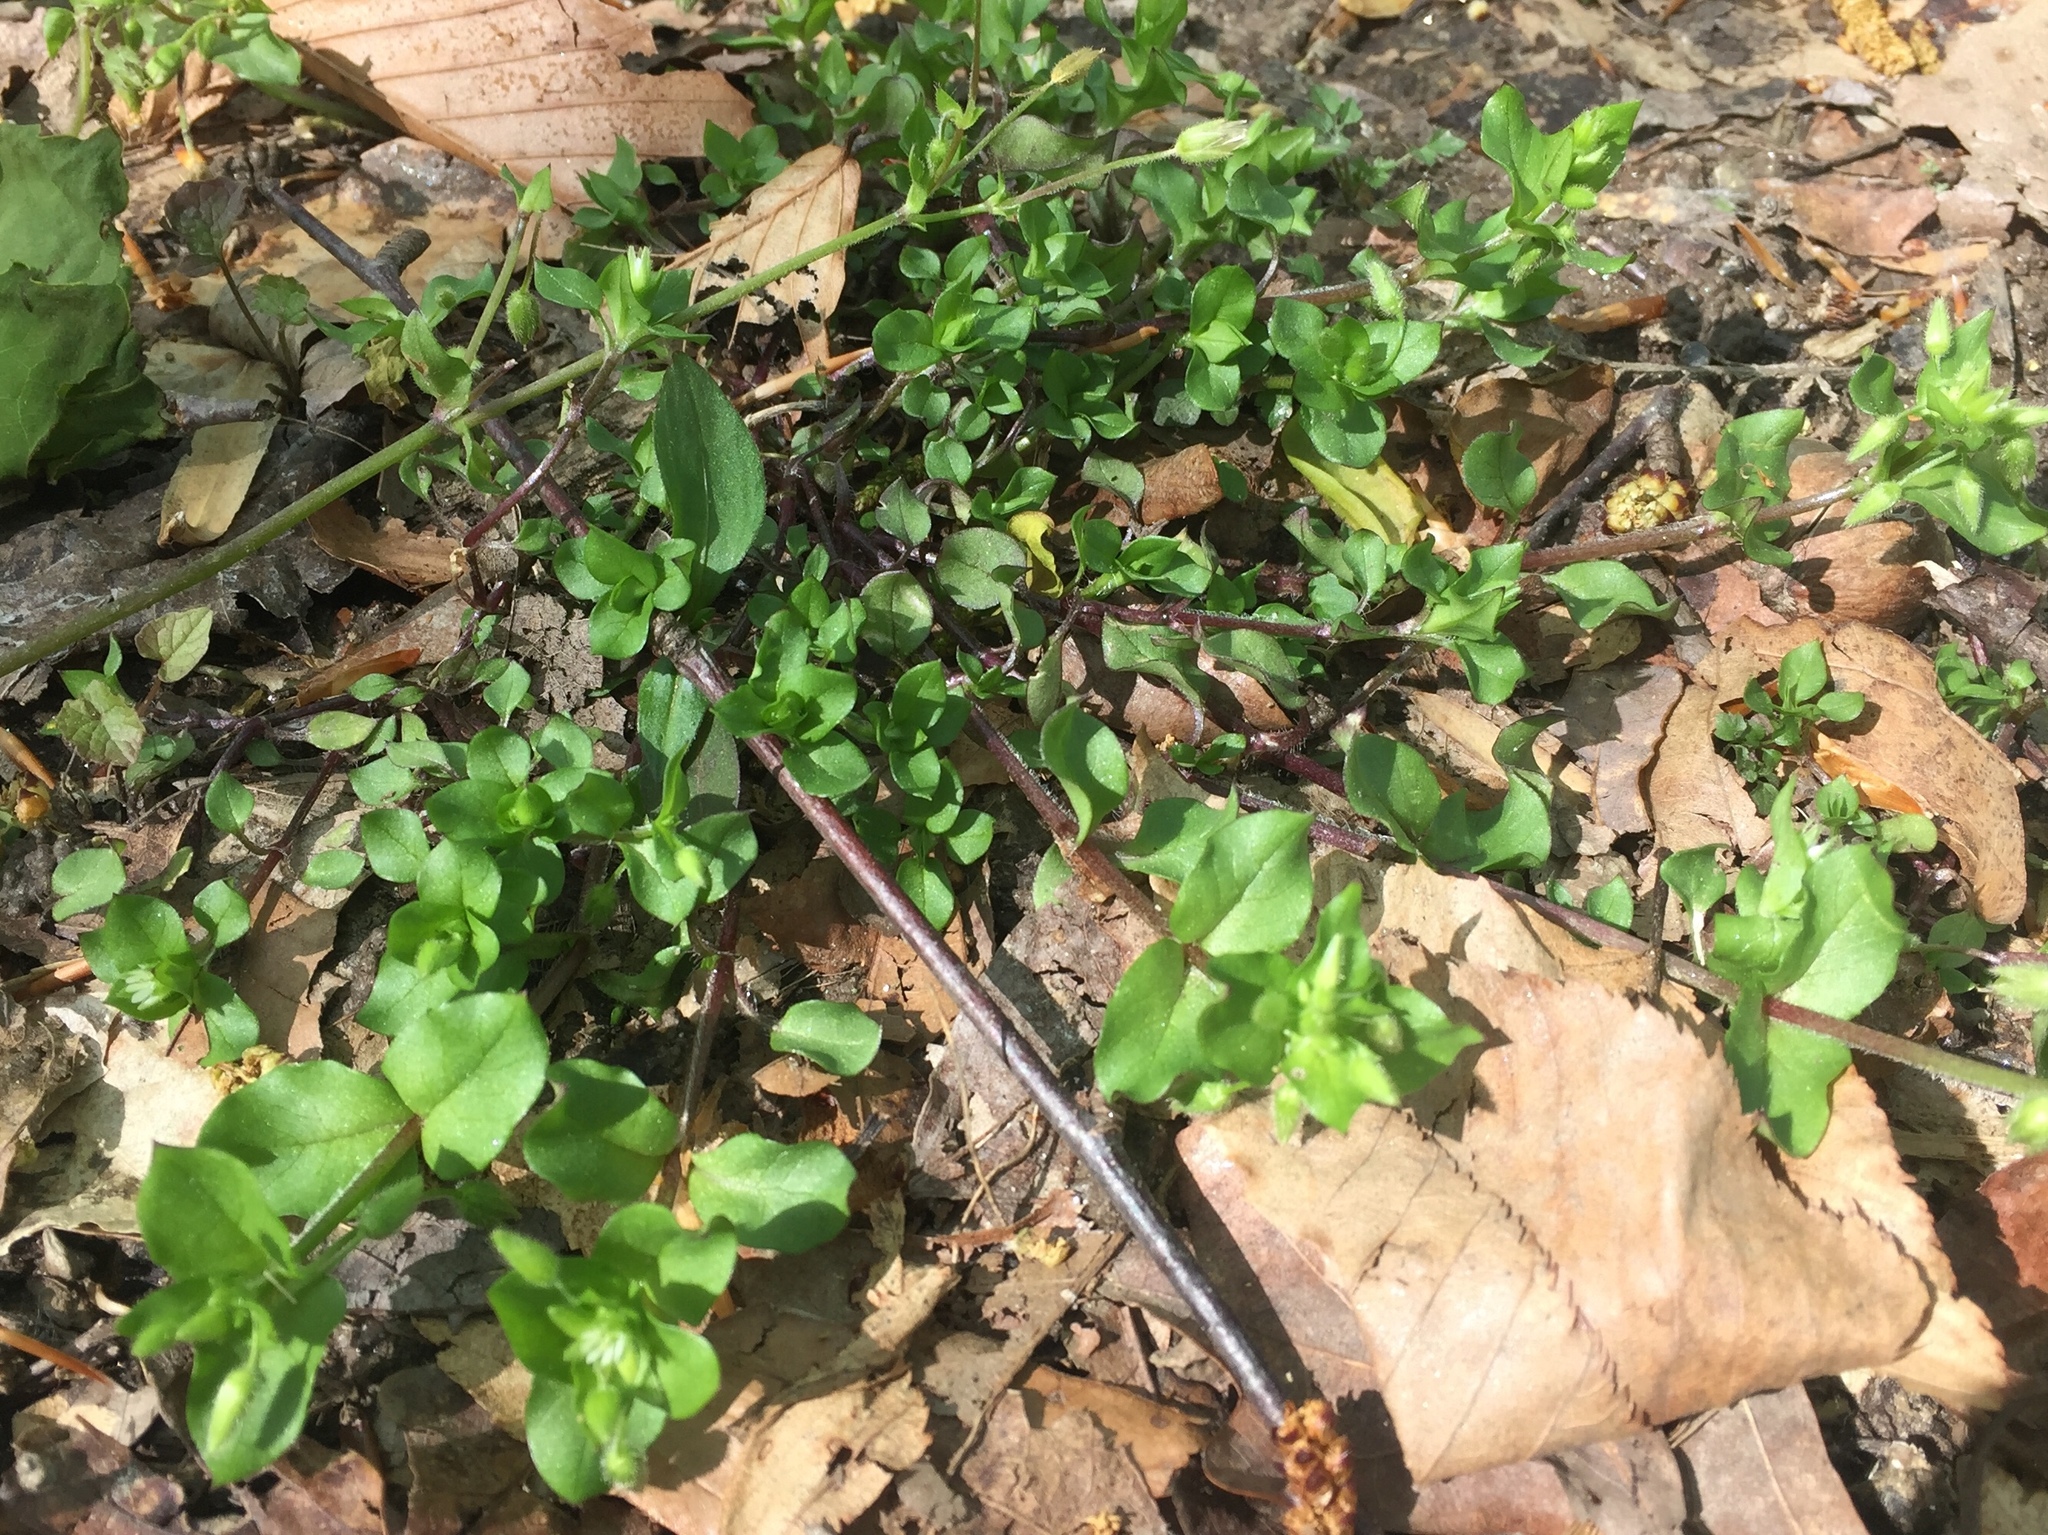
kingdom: Plantae
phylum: Tracheophyta
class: Magnoliopsida
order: Caryophyllales
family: Caryophyllaceae
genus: Stellaria
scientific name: Stellaria media
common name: Common chickweed
